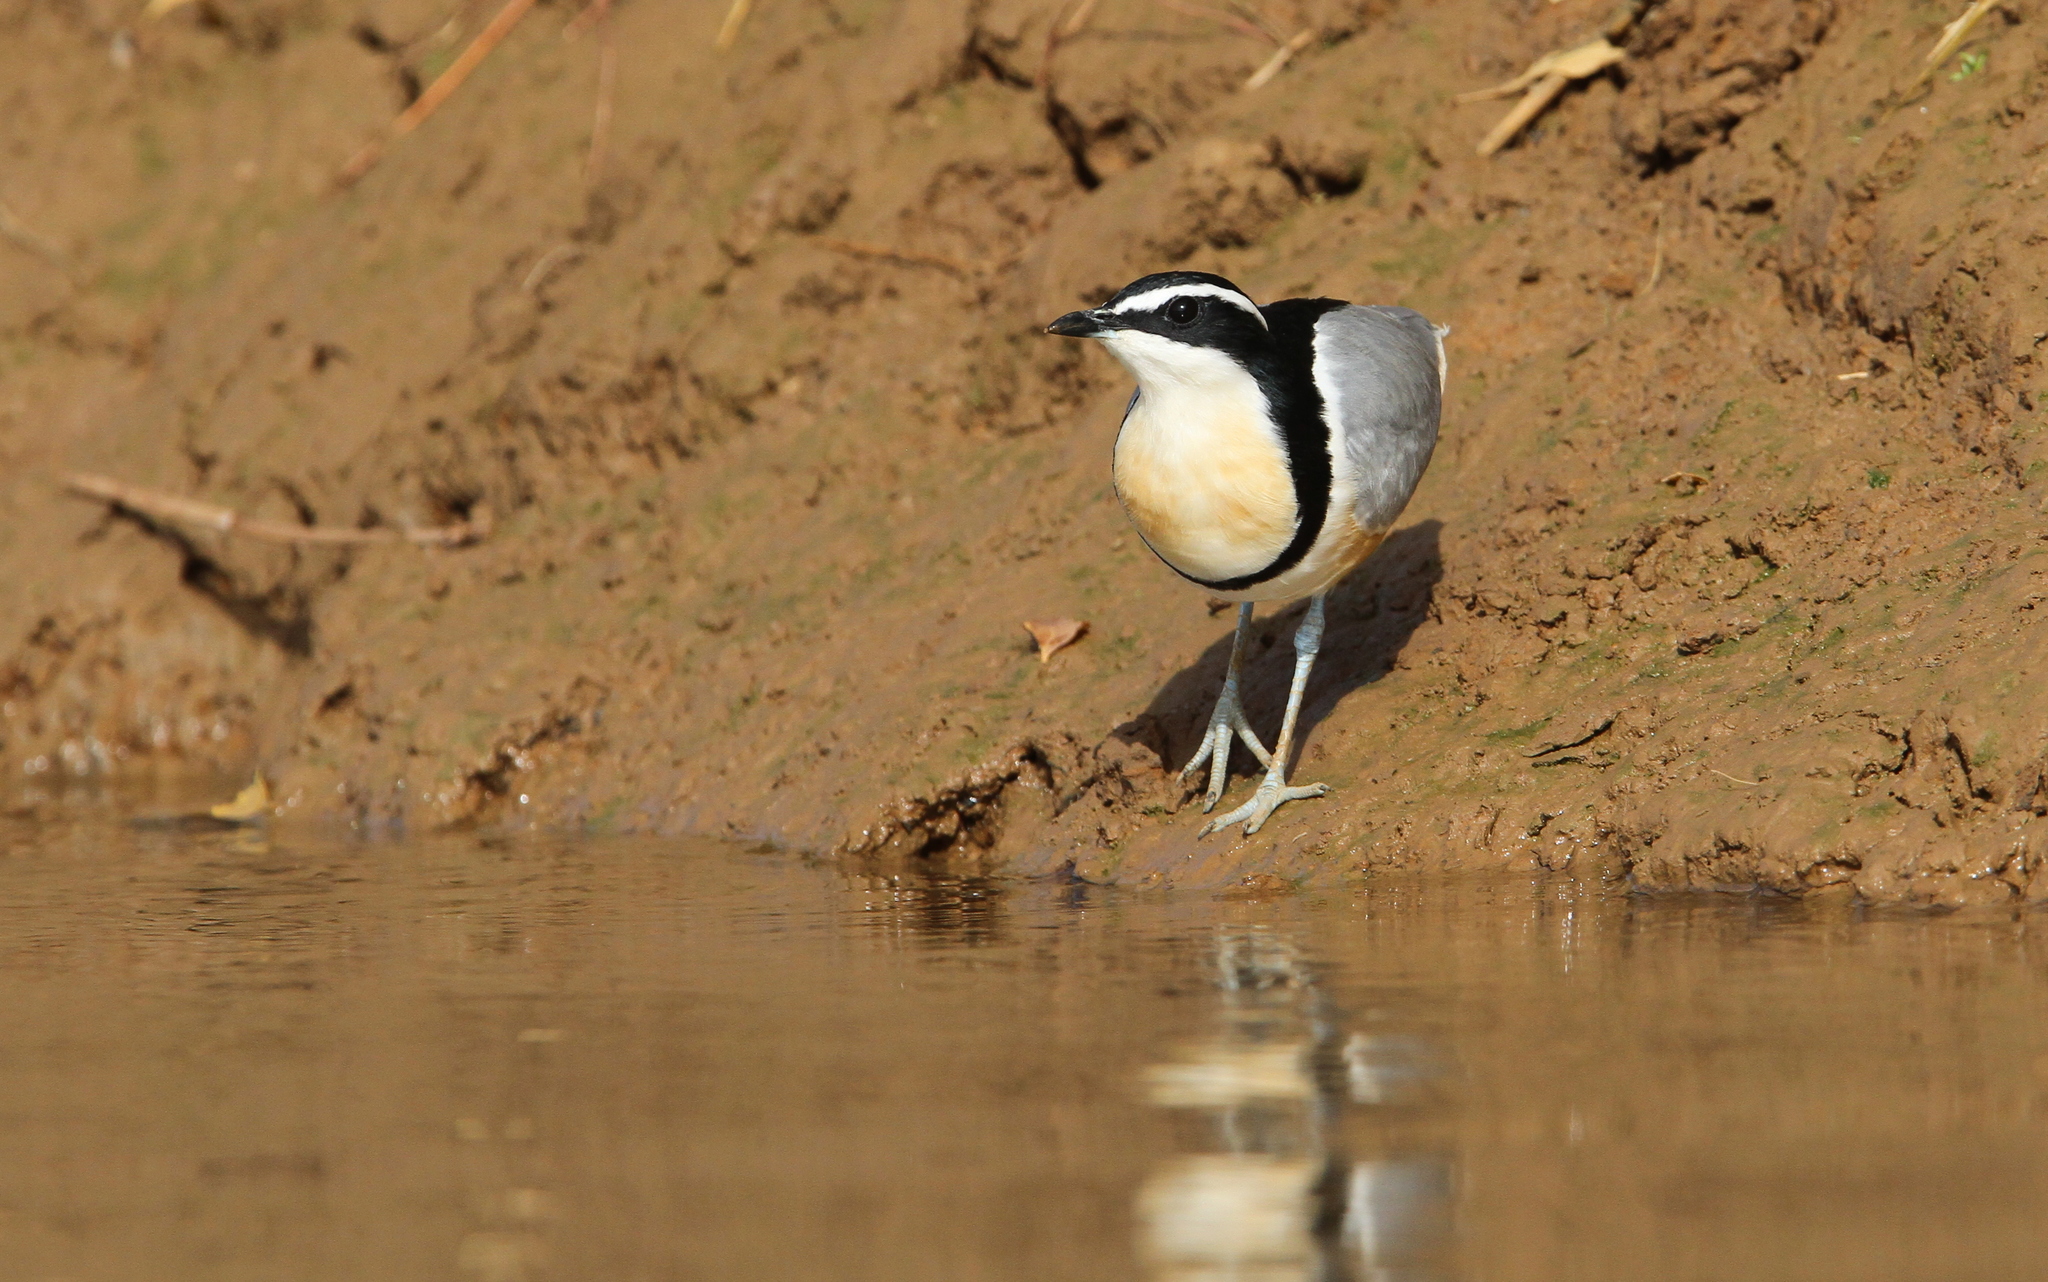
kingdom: Animalia
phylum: Chordata
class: Aves
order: Charadriiformes
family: Pluvianidae
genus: Pluvianus
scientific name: Pluvianus aegyptius
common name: Egyptian plover
